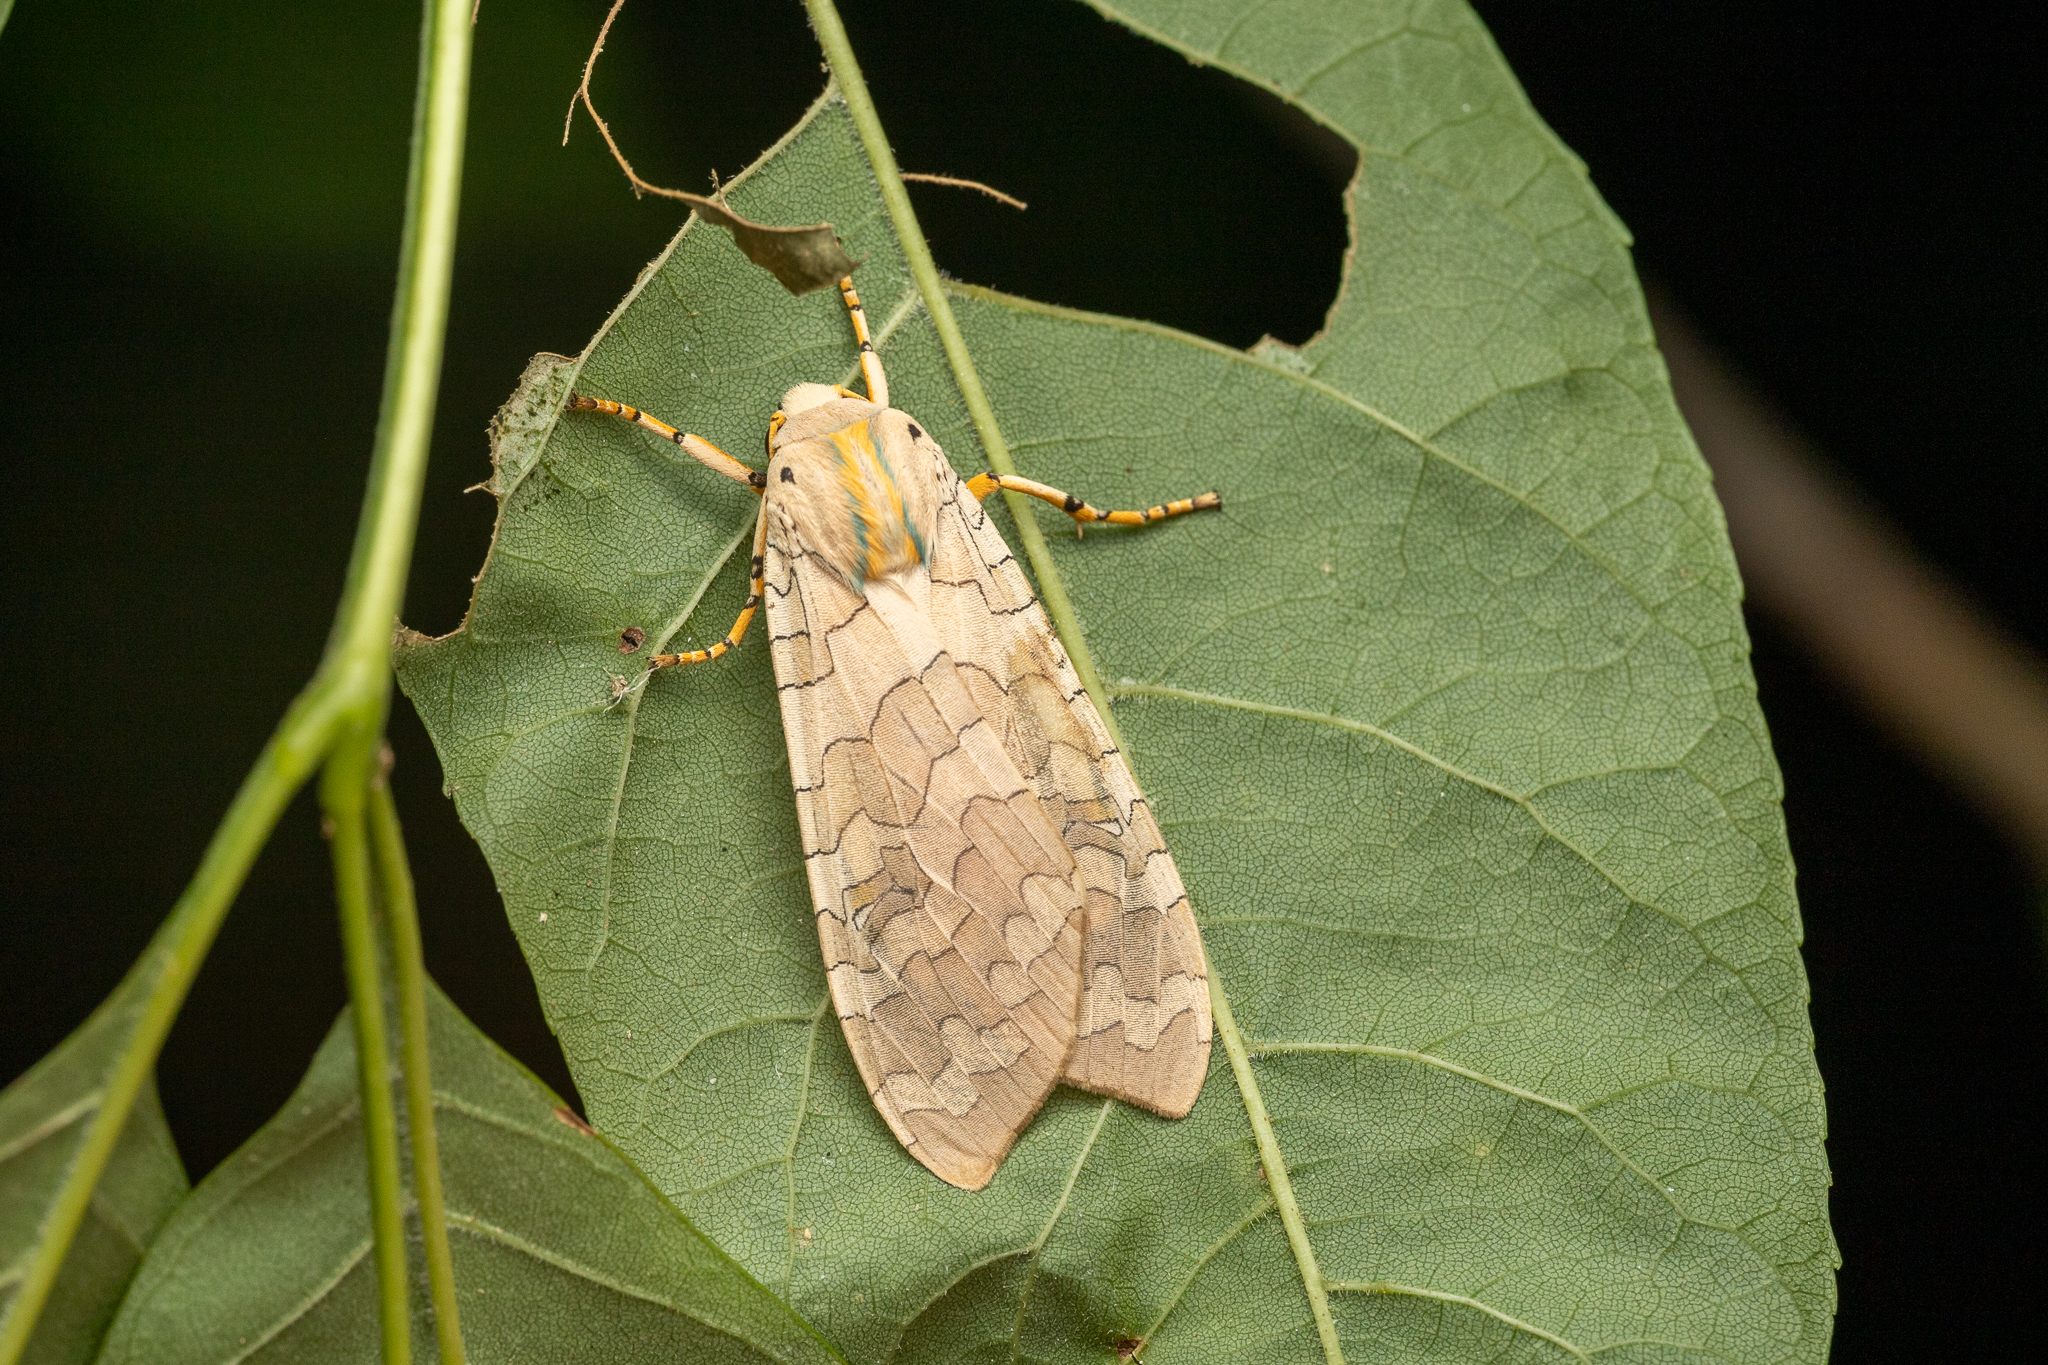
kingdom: Animalia
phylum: Arthropoda
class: Insecta
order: Lepidoptera
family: Erebidae
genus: Halysidota
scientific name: Halysidota
